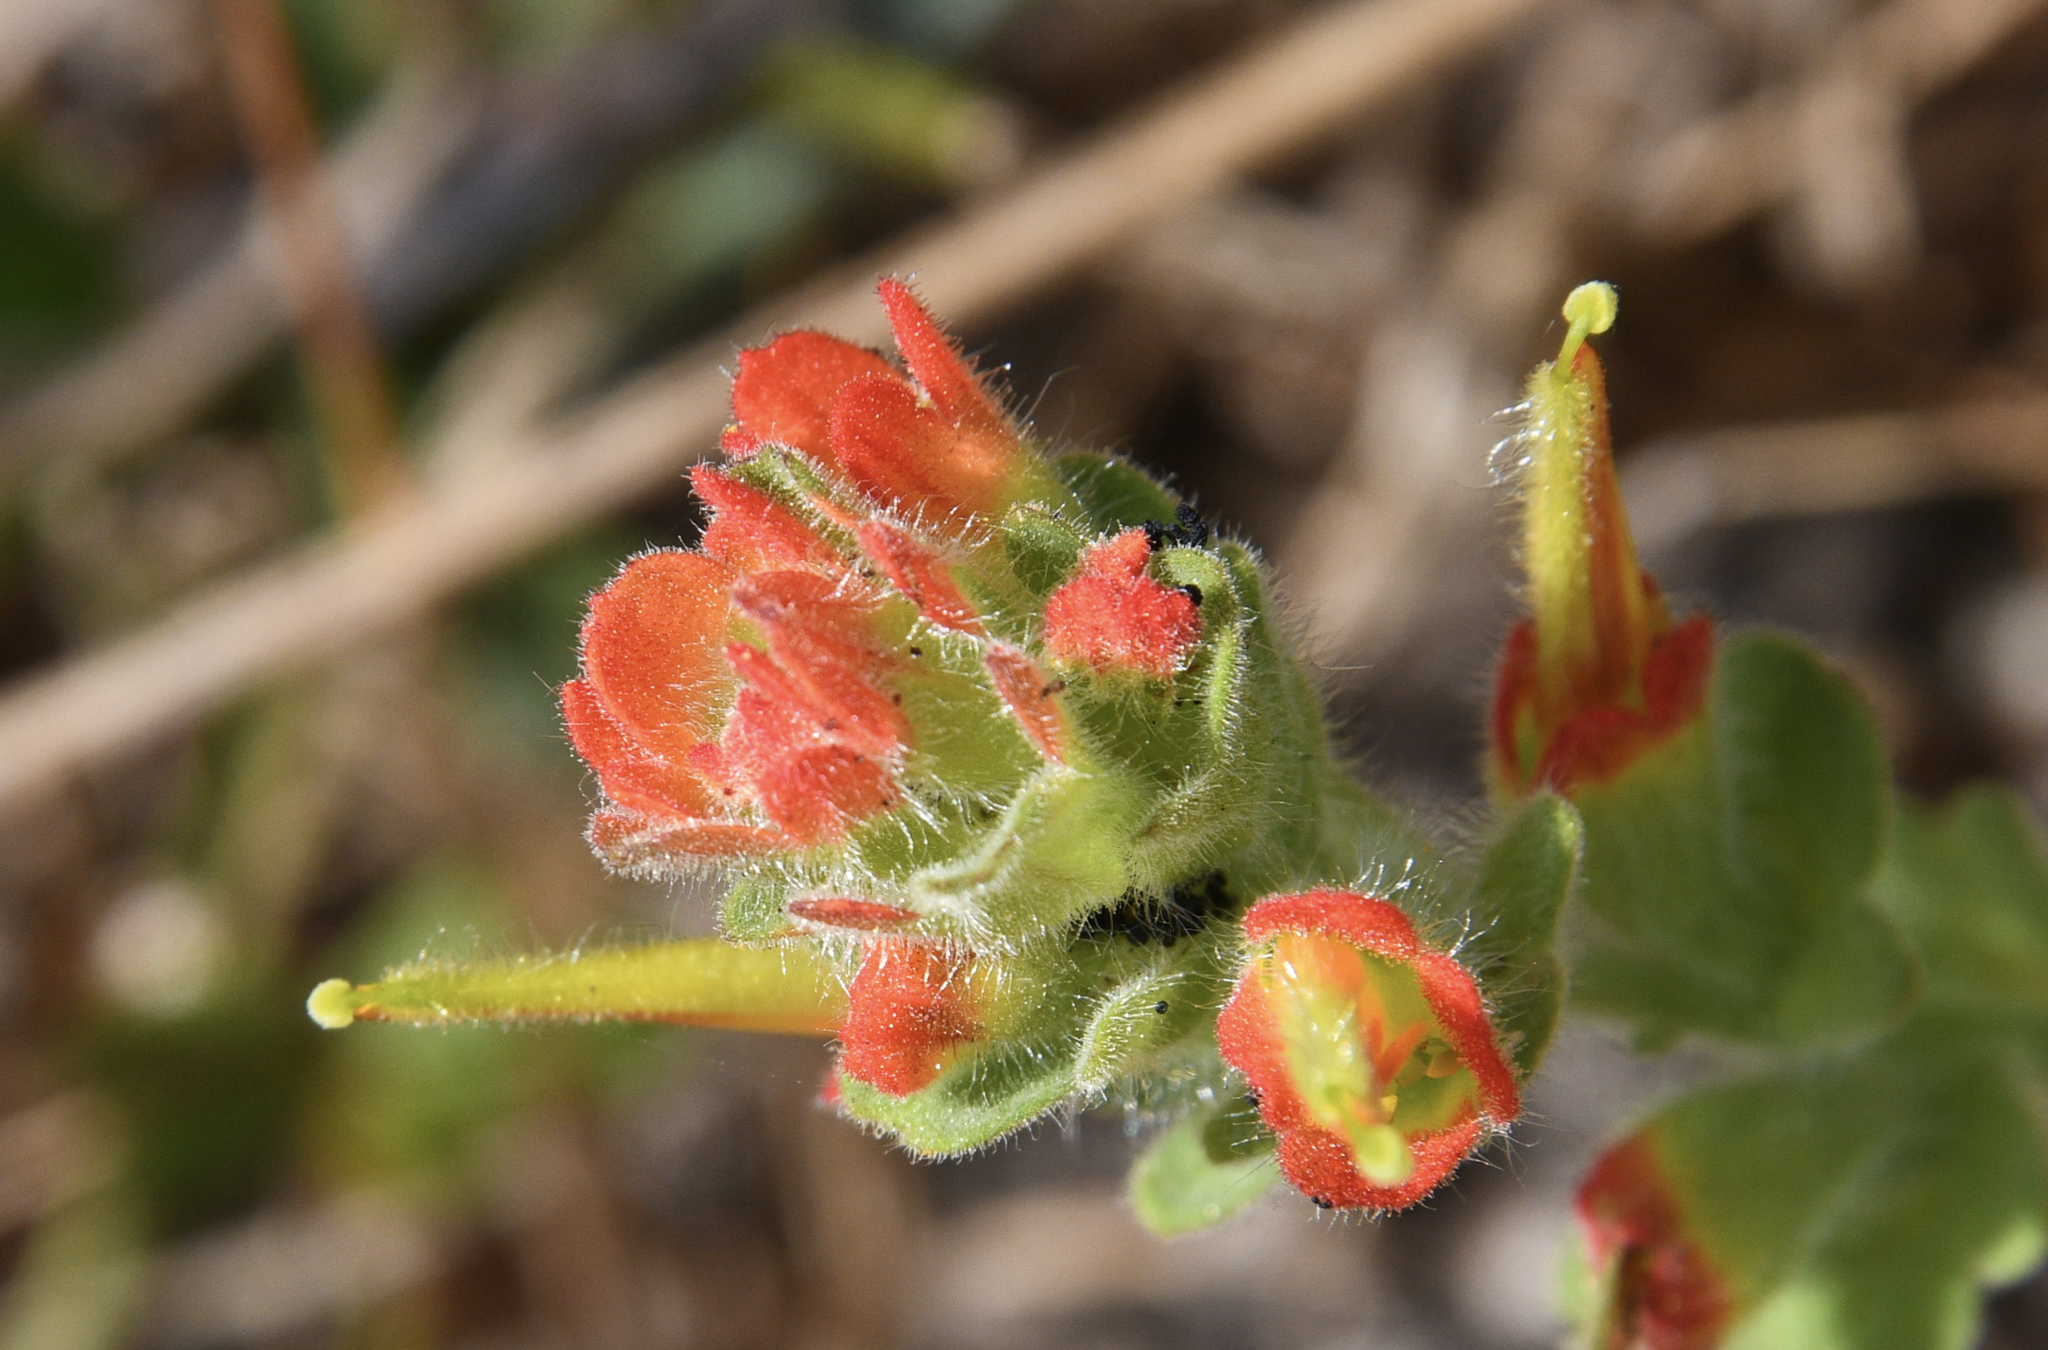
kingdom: Plantae
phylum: Tracheophyta
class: Magnoliopsida
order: Lamiales
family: Orobanchaceae
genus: Castilleja
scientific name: Castilleja mendocinensis
